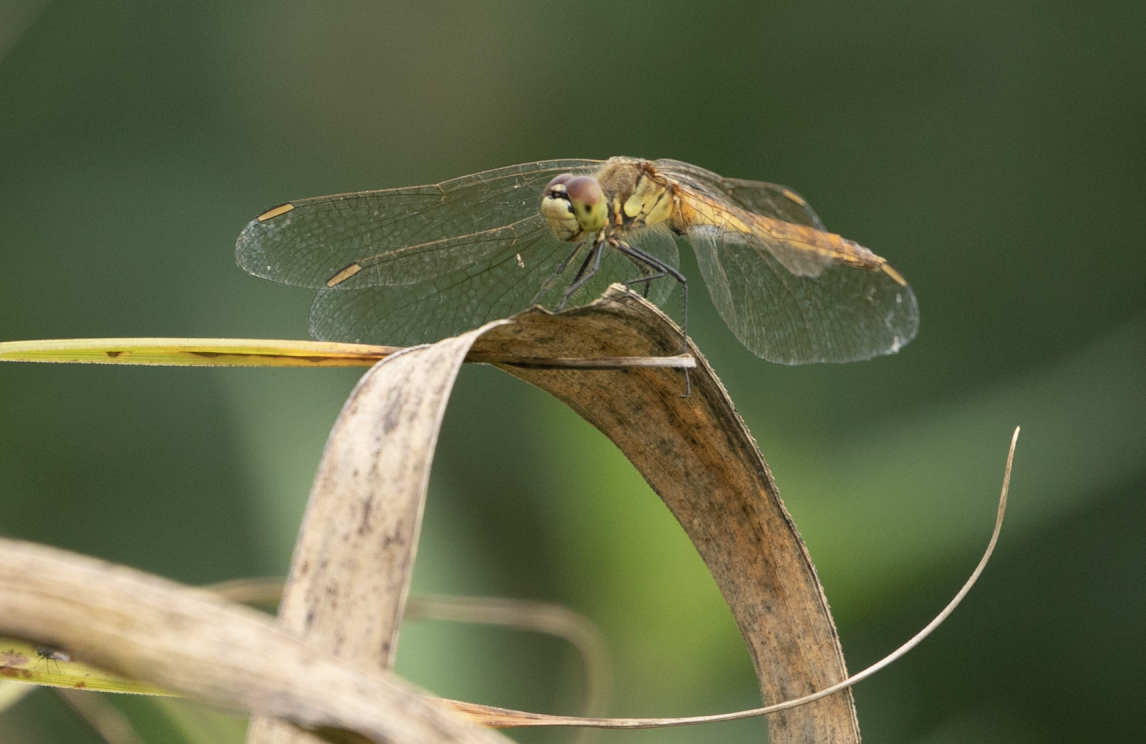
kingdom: Animalia
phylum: Arthropoda
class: Insecta
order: Odonata
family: Libellulidae
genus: Sympetrum
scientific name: Sympetrum depressiusculum
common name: Spotted darter
